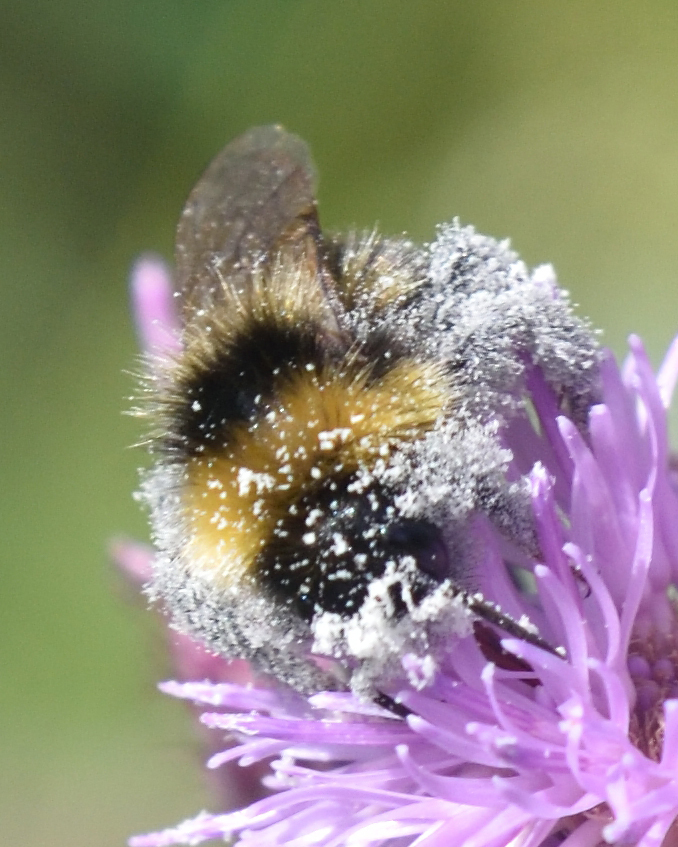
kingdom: Animalia
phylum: Arthropoda
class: Insecta
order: Hymenoptera
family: Apidae
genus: Bombus
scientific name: Bombus
